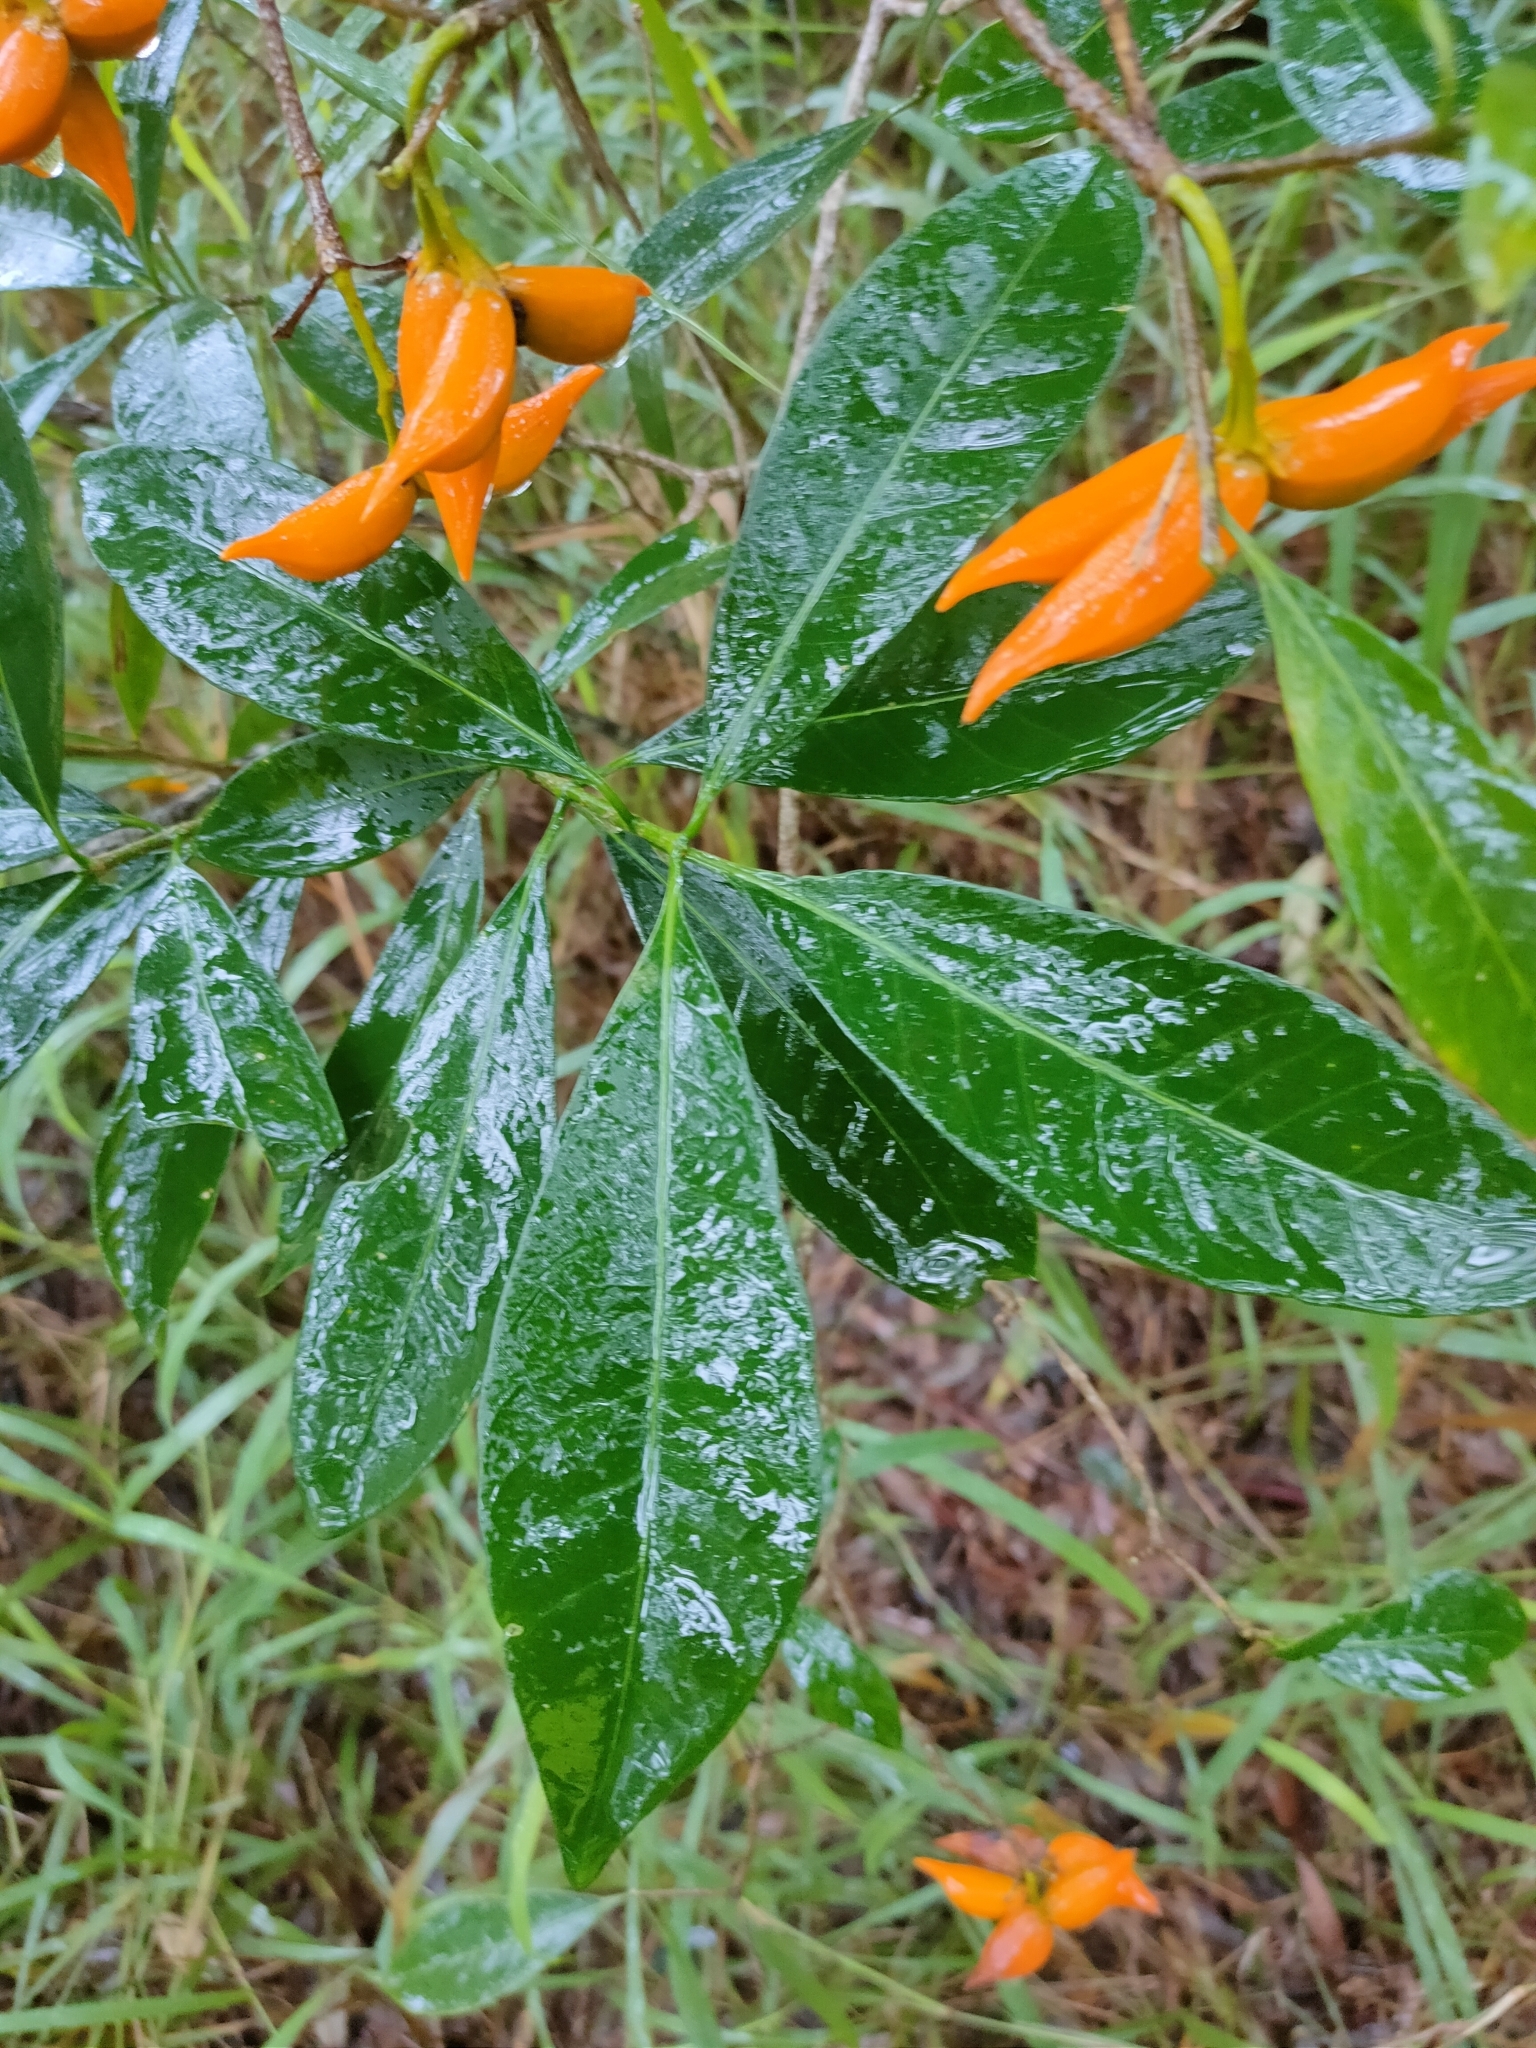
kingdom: Plantae
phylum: Tracheophyta
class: Magnoliopsida
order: Gentianales
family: Apocynaceae
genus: Tabernaemontana
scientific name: Tabernaemontana pandacaqui
